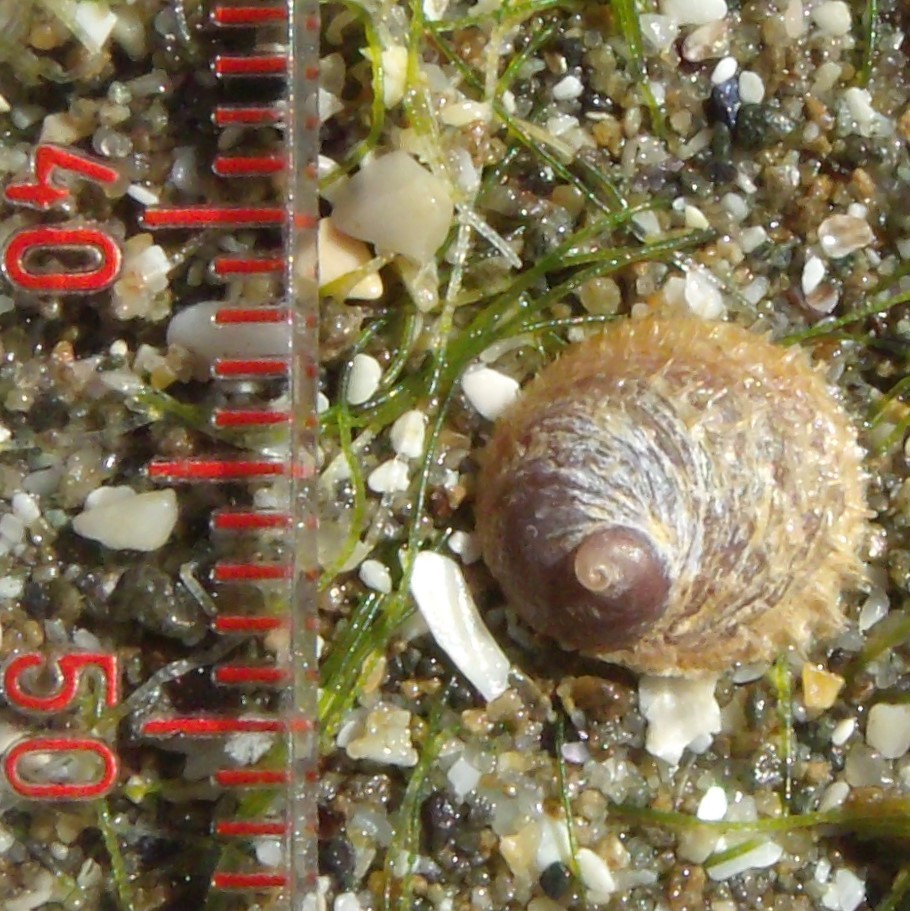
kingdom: Animalia
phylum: Mollusca
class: Gastropoda
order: Littorinimorpha
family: Calyptraeidae
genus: Sigapatella
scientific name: Sigapatella novaezelandiae
